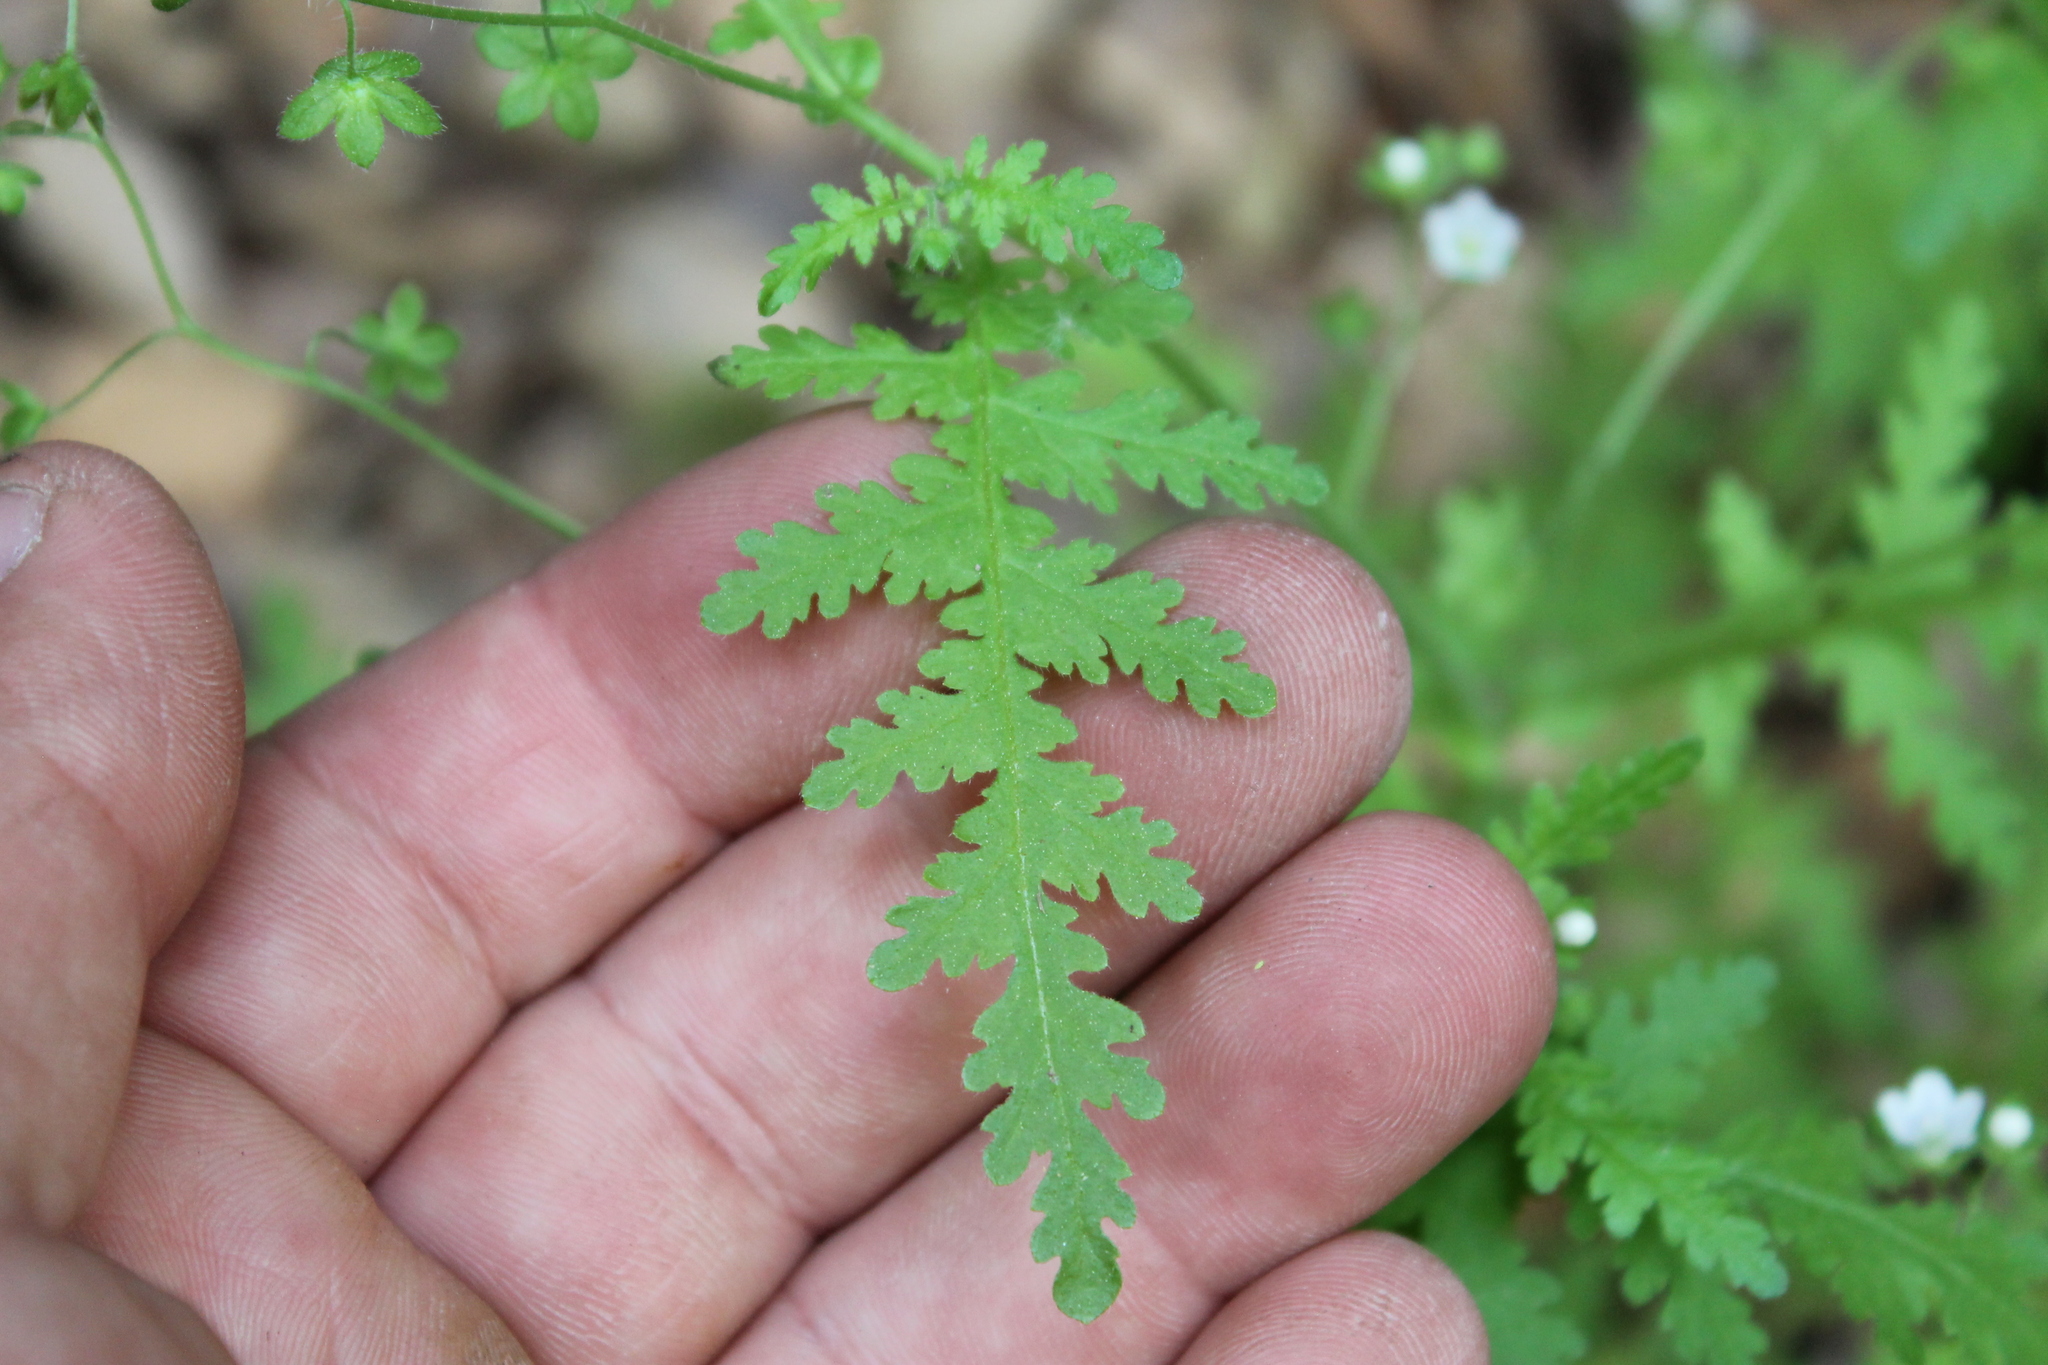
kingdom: Plantae
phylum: Tracheophyta
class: Magnoliopsida
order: Boraginales
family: Hydrophyllaceae
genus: Eucrypta
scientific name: Eucrypta chrysanthemifolia
